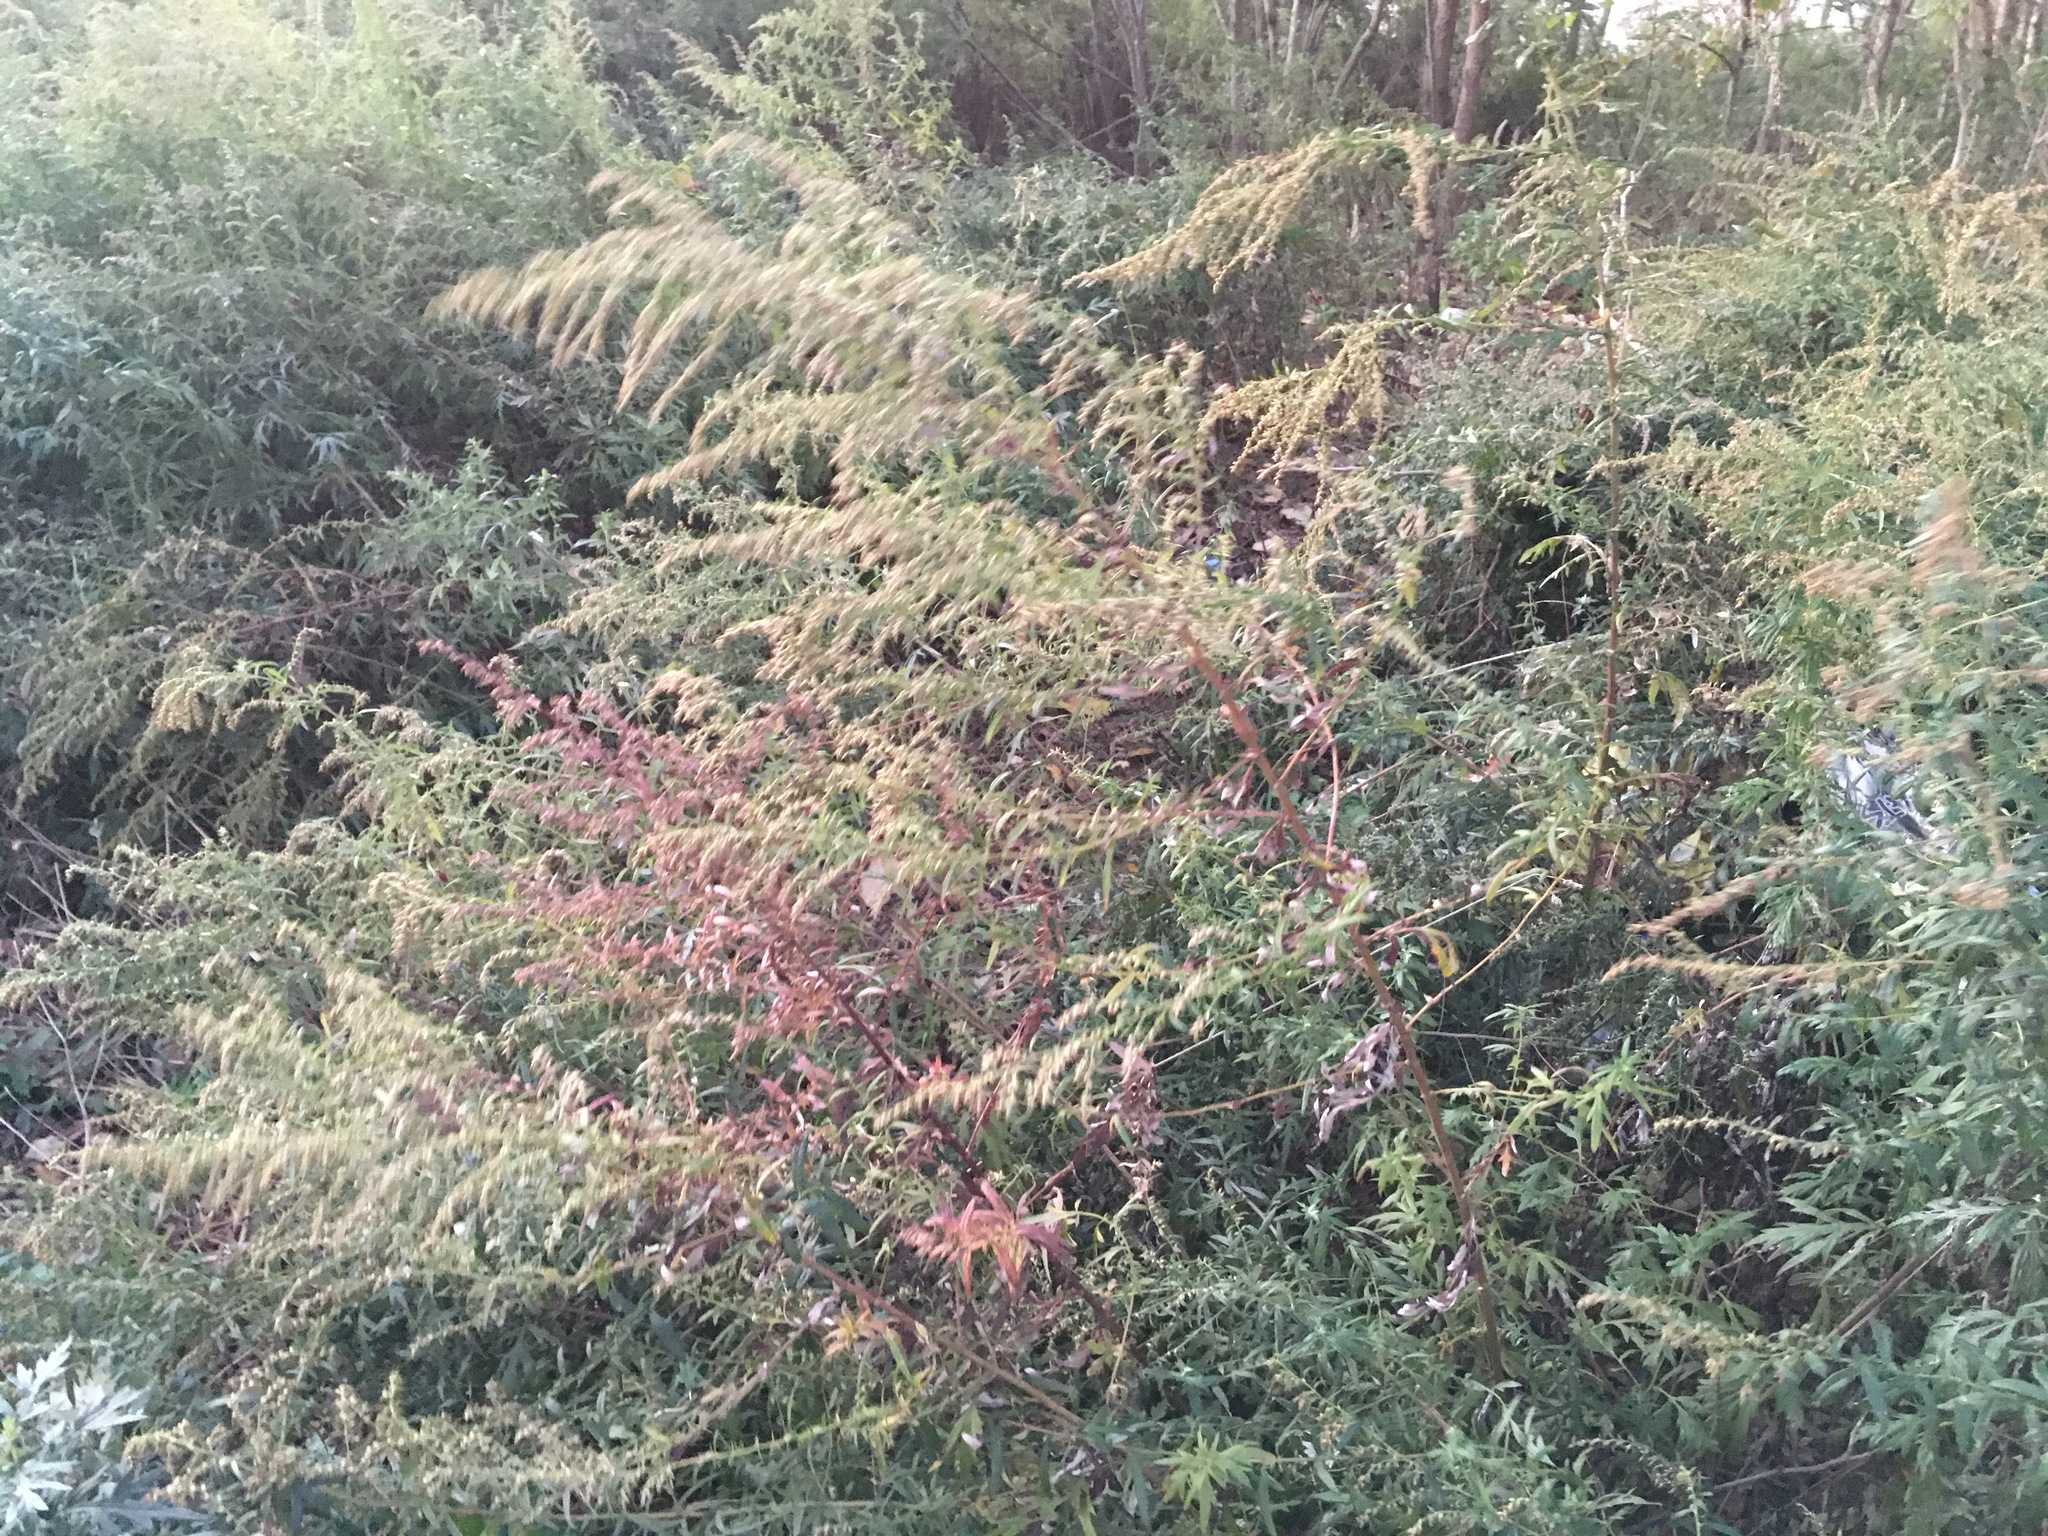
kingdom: Plantae
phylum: Tracheophyta
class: Magnoliopsida
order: Asterales
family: Asteraceae
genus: Artemisia
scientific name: Artemisia vulgaris
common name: Mugwort
